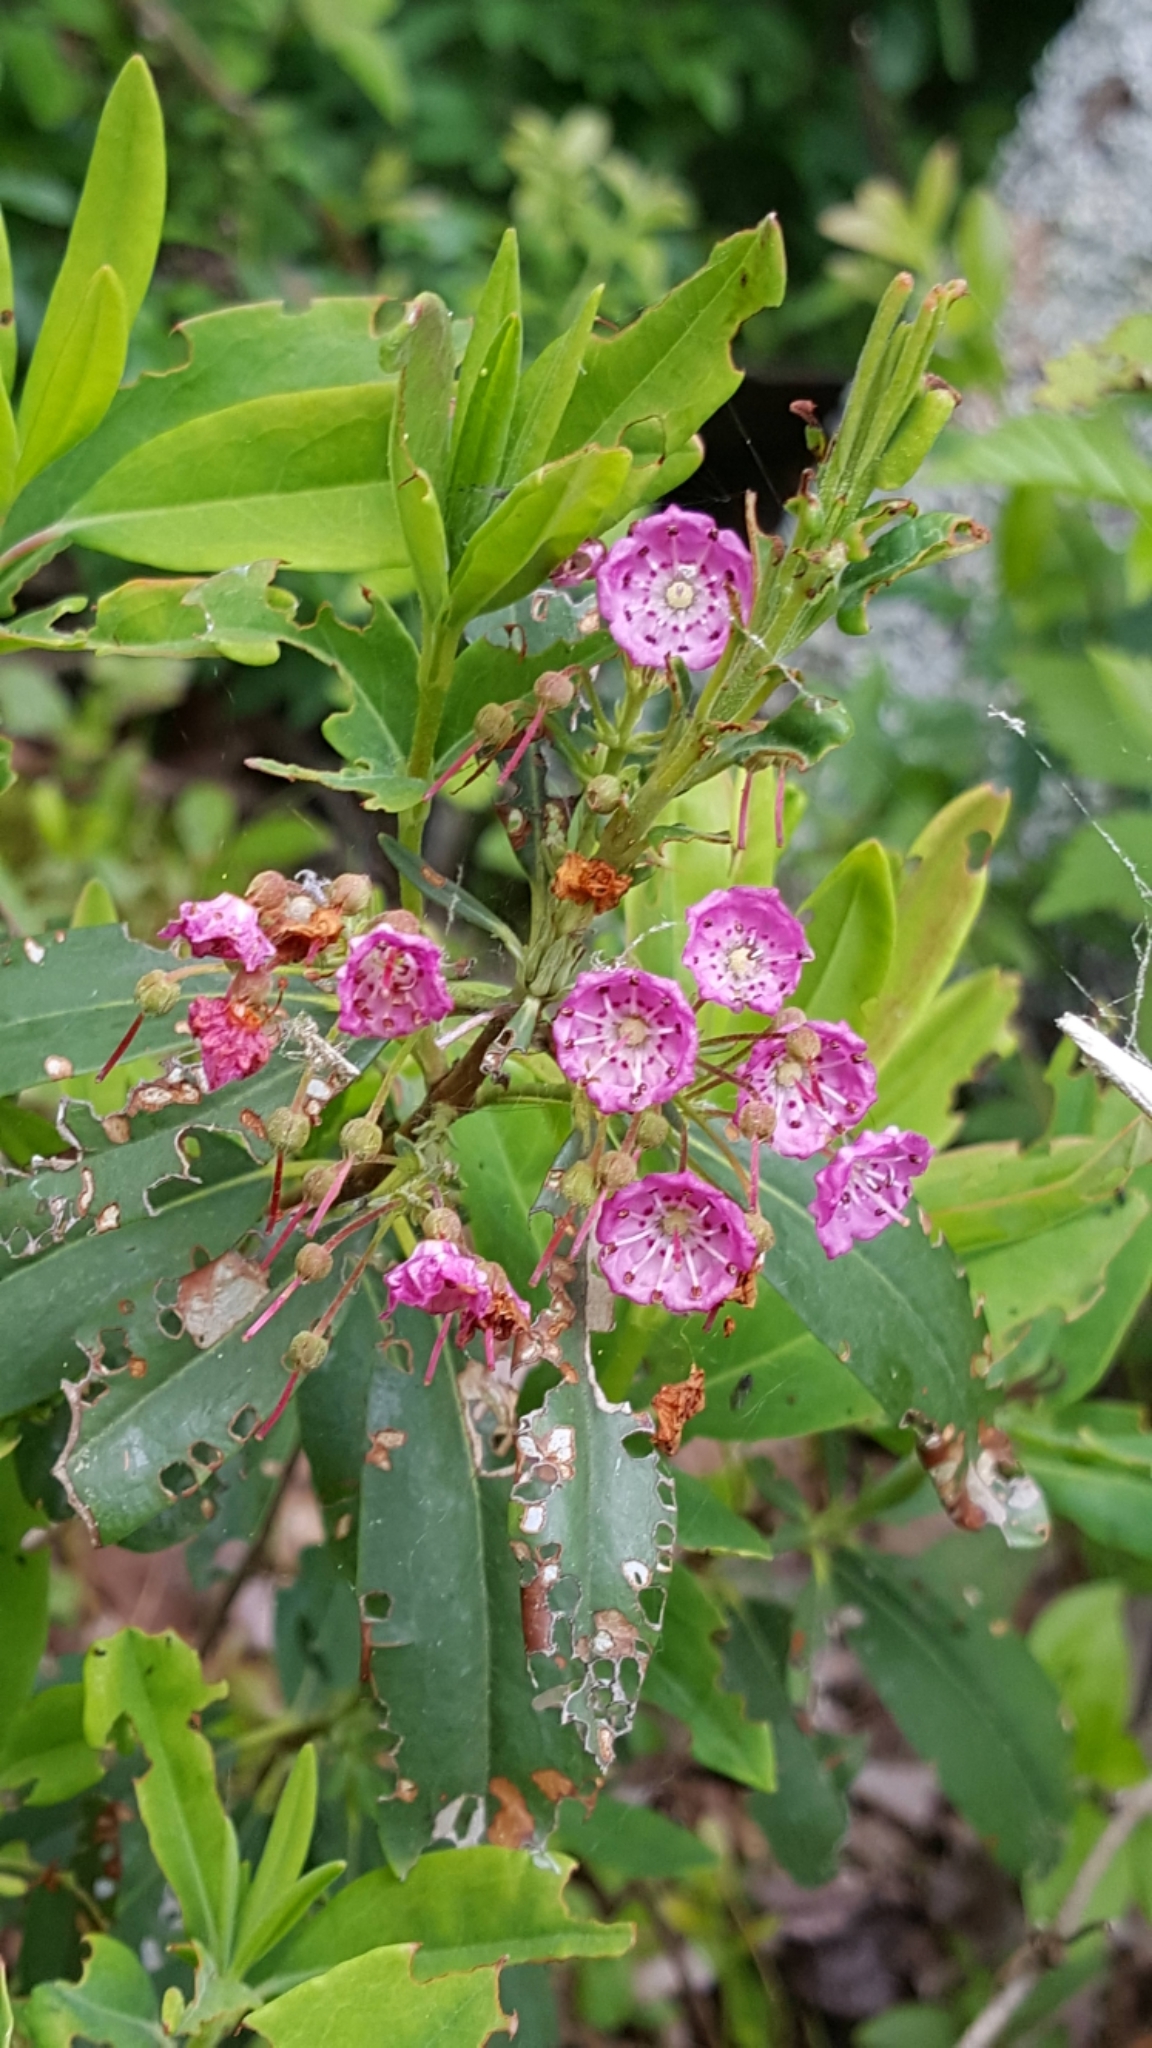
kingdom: Plantae
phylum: Tracheophyta
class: Magnoliopsida
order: Ericales
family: Ericaceae
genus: Kalmia
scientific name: Kalmia angustifolia
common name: Sheep-laurel
